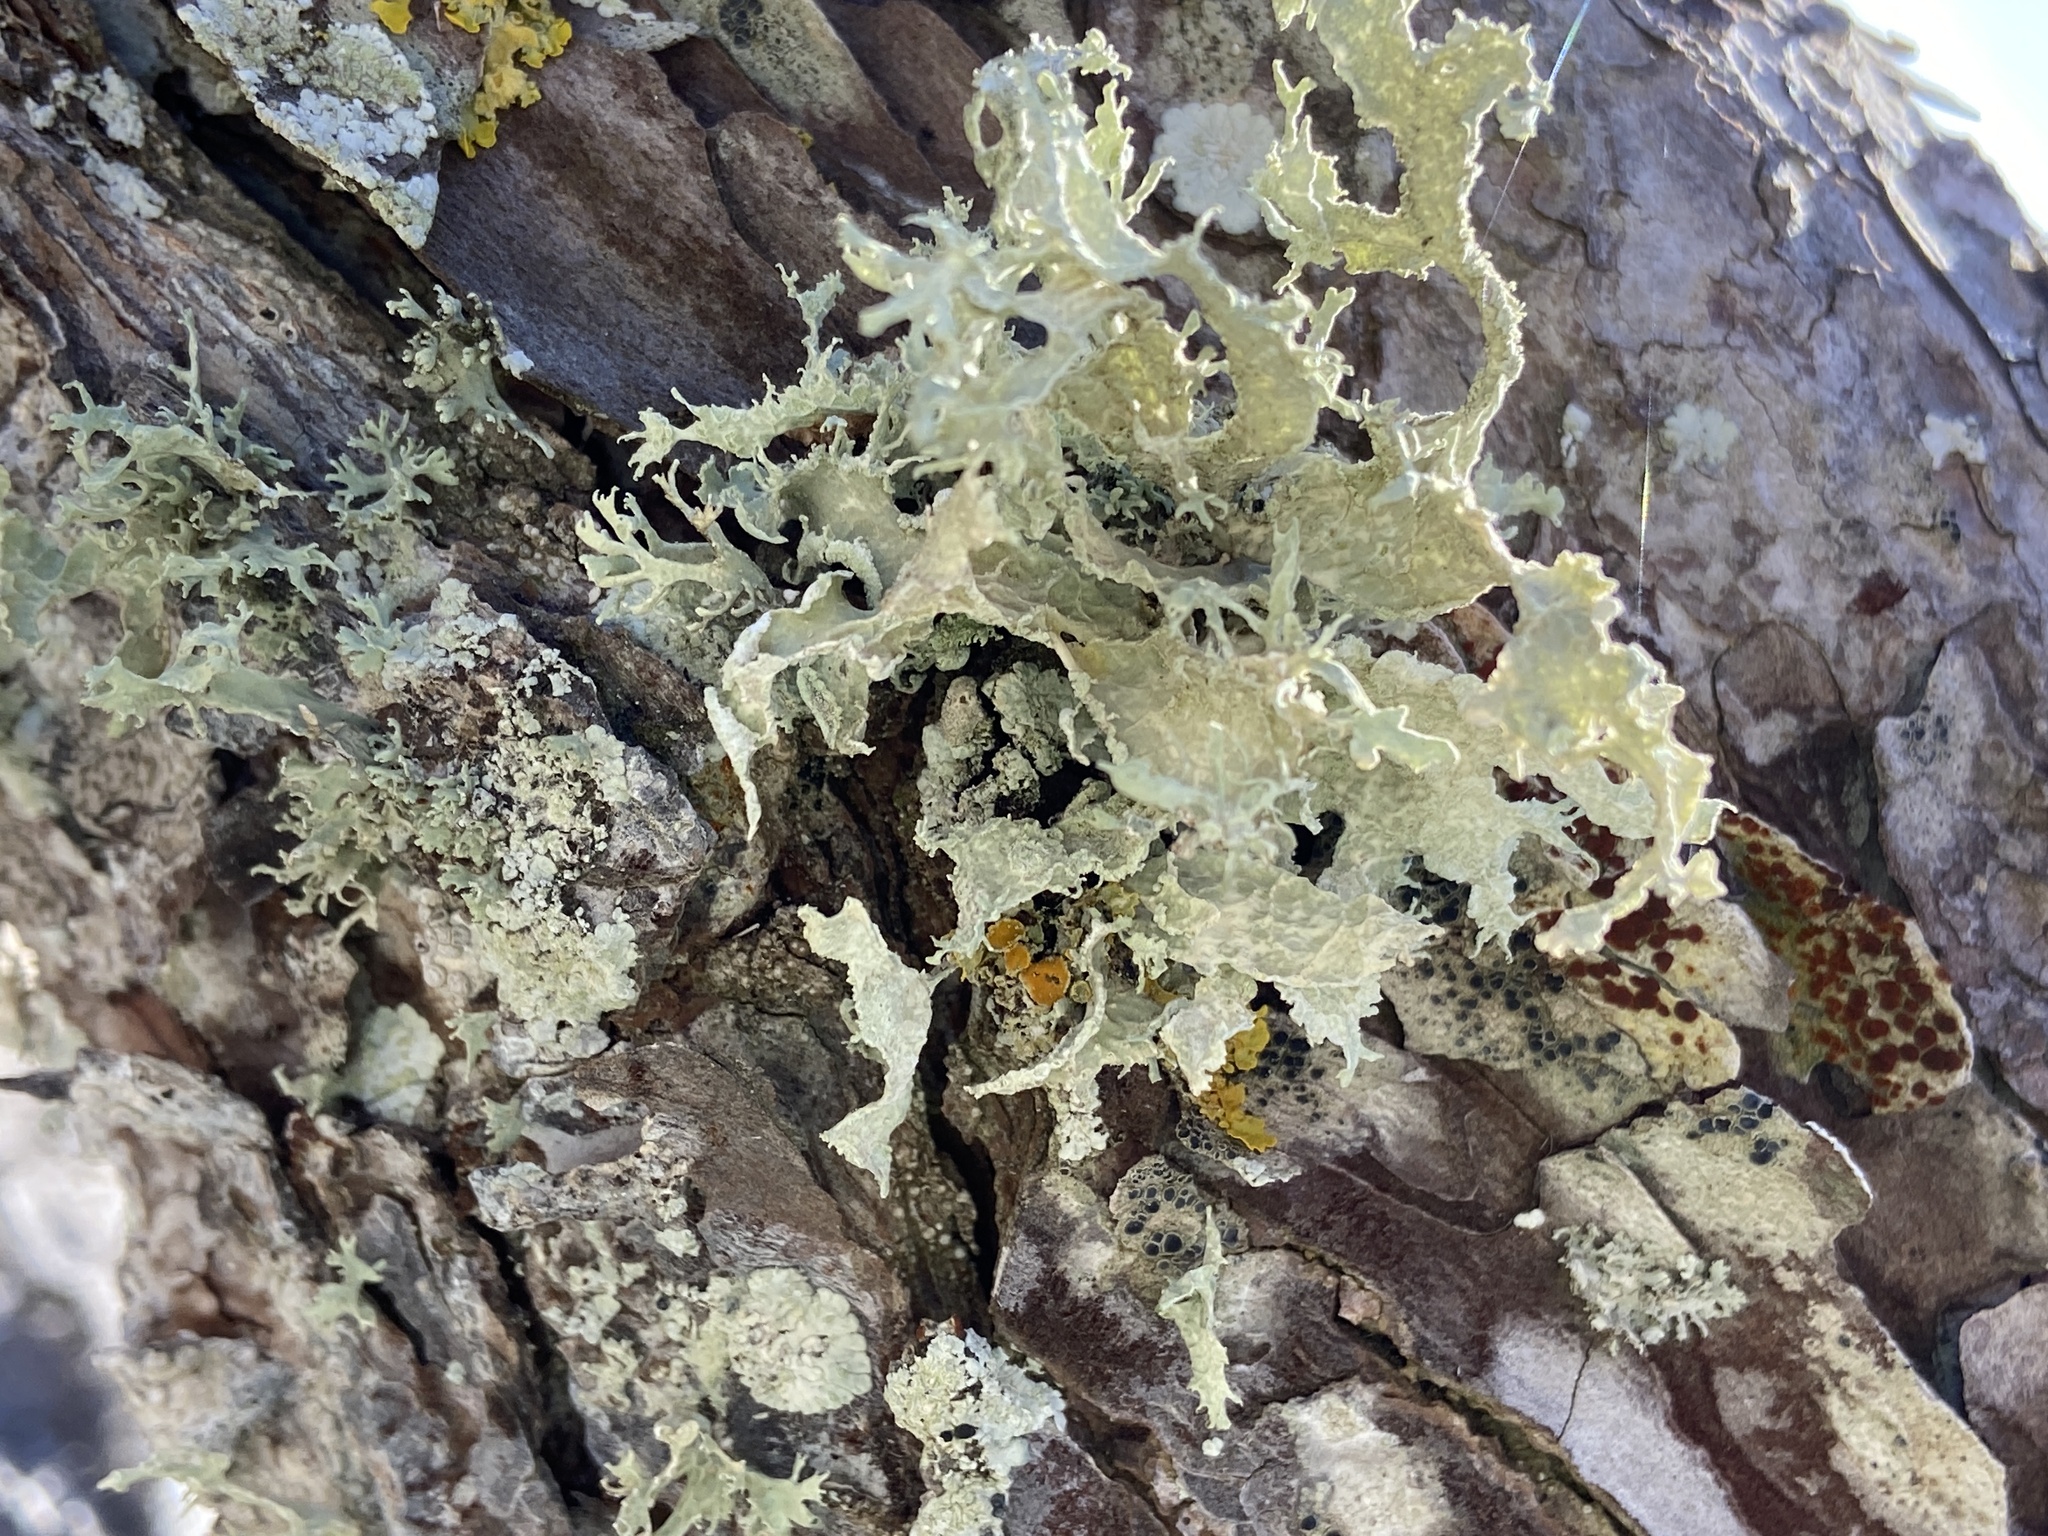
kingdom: Fungi
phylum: Ascomycota
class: Lecanoromycetes
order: Lecanorales
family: Ramalinaceae
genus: Ramalina
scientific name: Ramalina lacera
